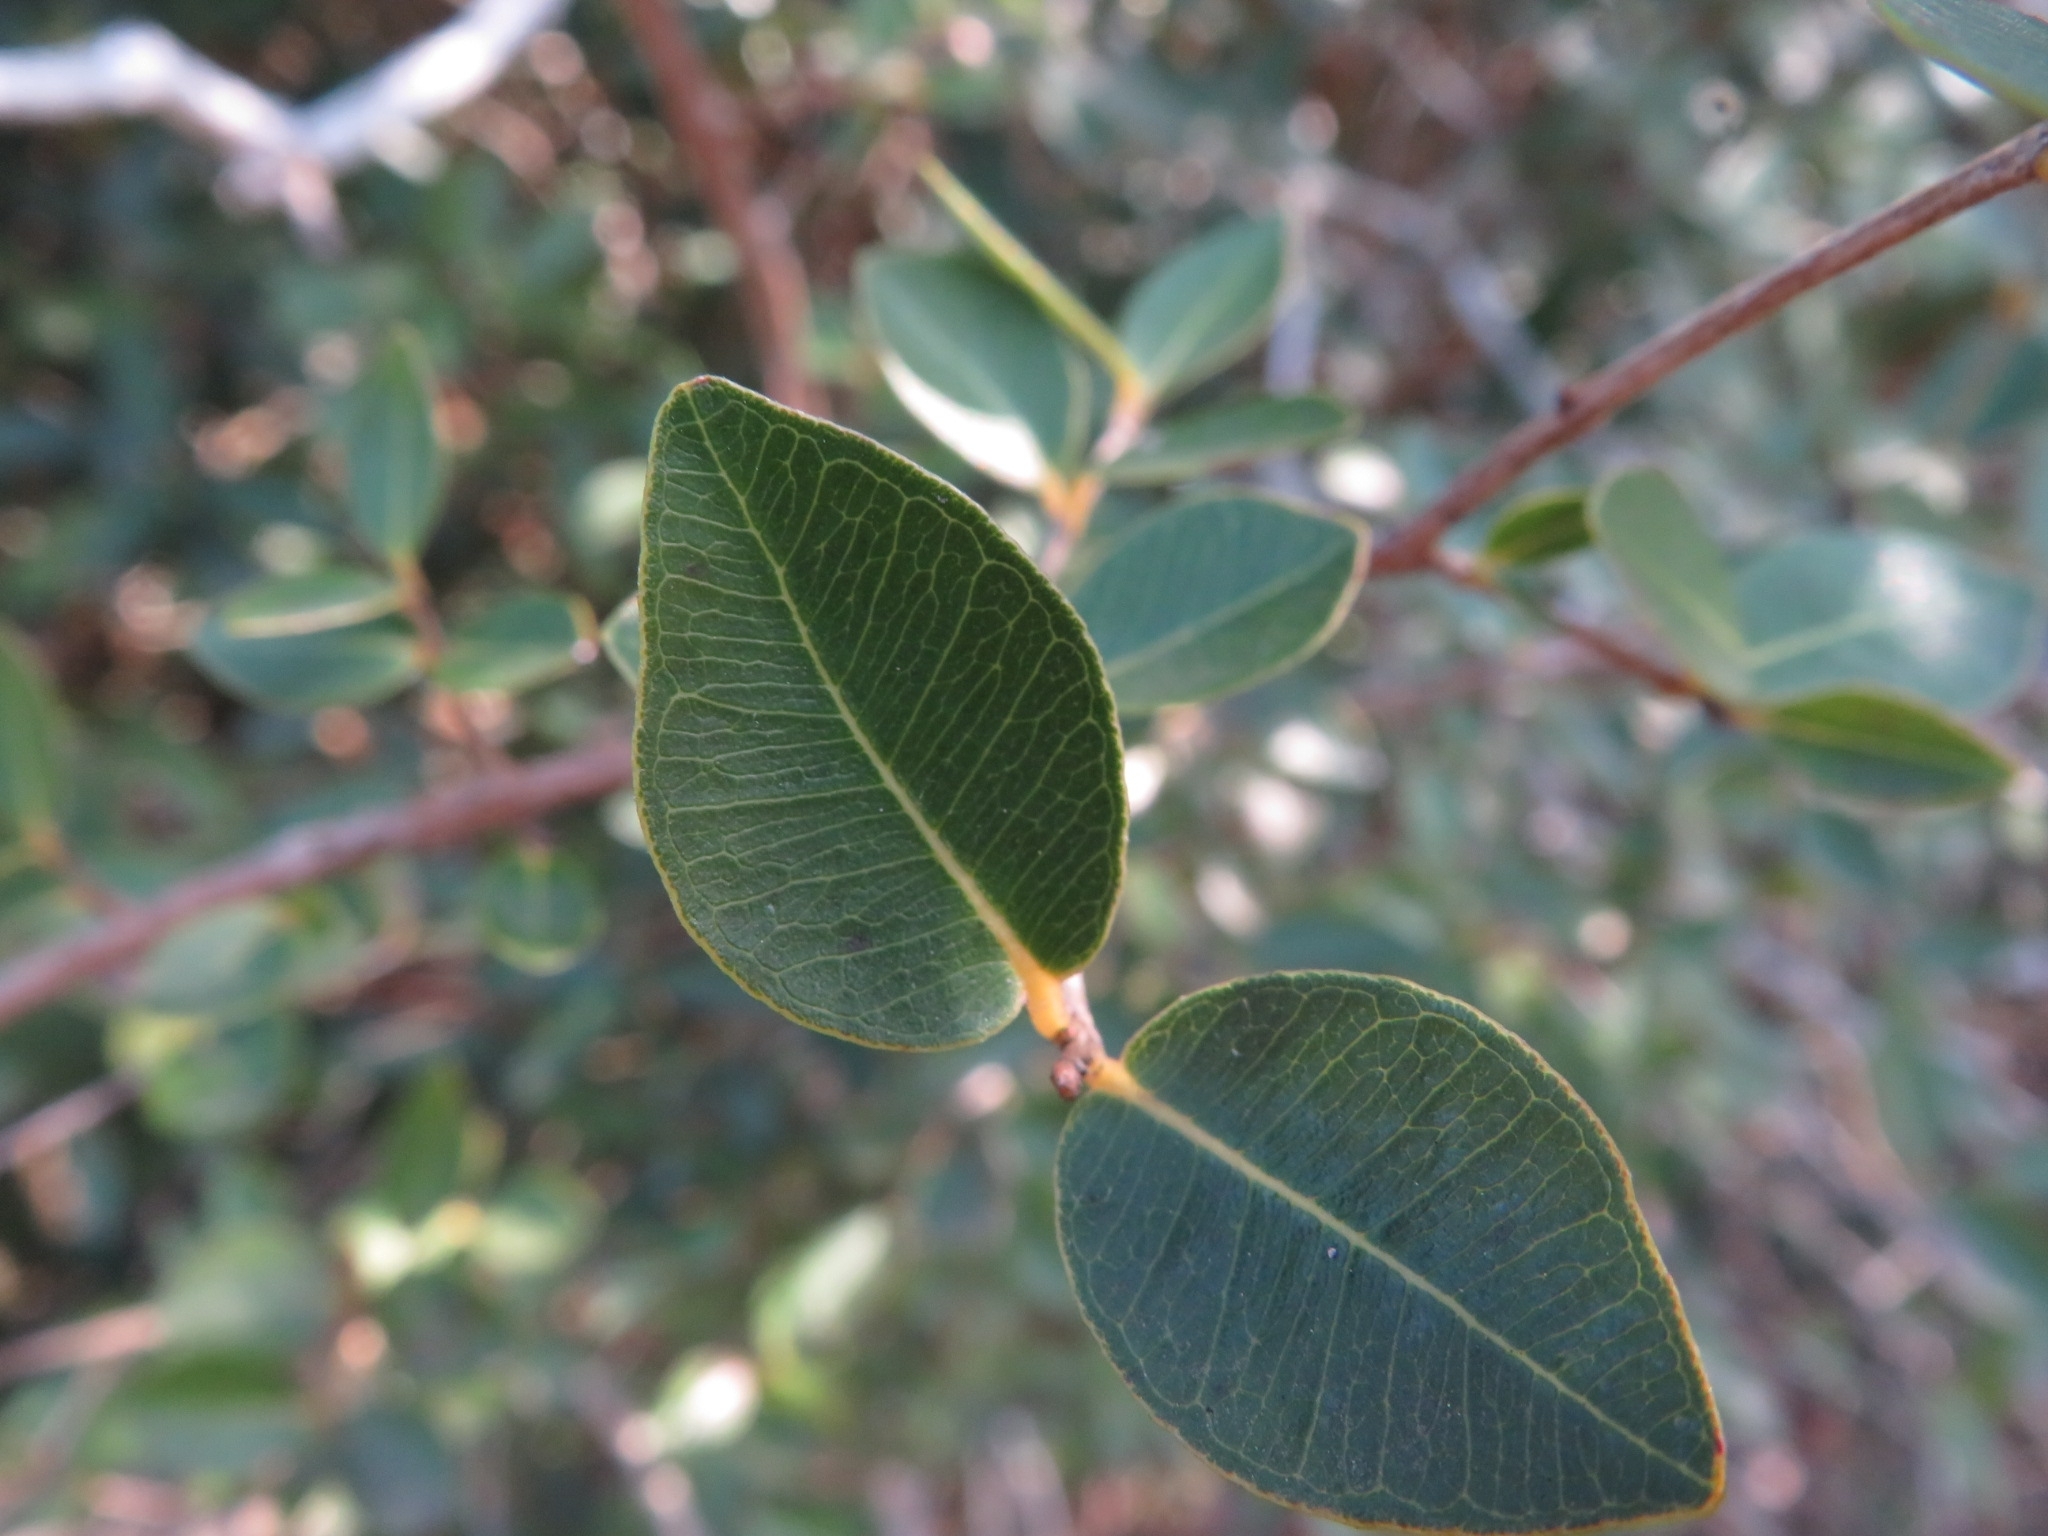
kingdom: Plantae
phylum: Tracheophyta
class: Magnoliopsida
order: Myrtales
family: Myrtaceae
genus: Myrcia
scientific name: Myrcia selloi
